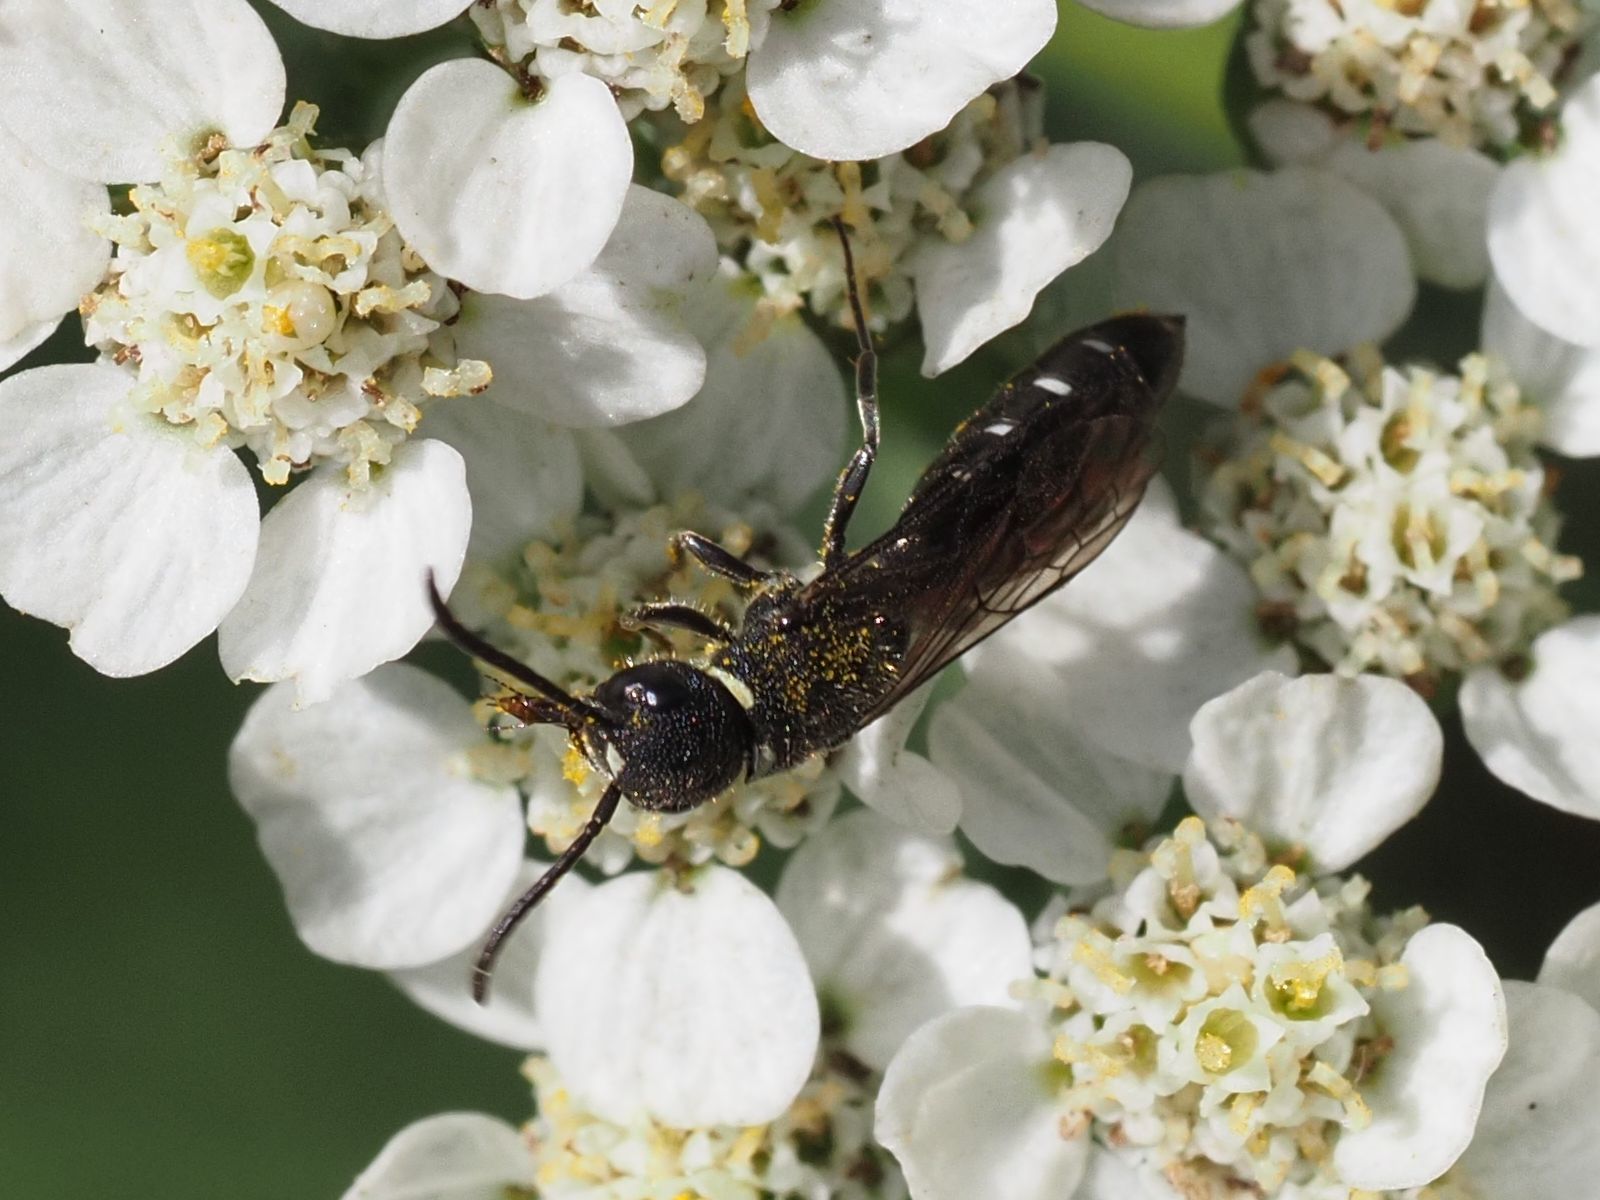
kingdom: Animalia
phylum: Arthropoda
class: Insecta
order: Hymenoptera
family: Sapygidae
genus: Sapygina
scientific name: Sapygina decemguttata
